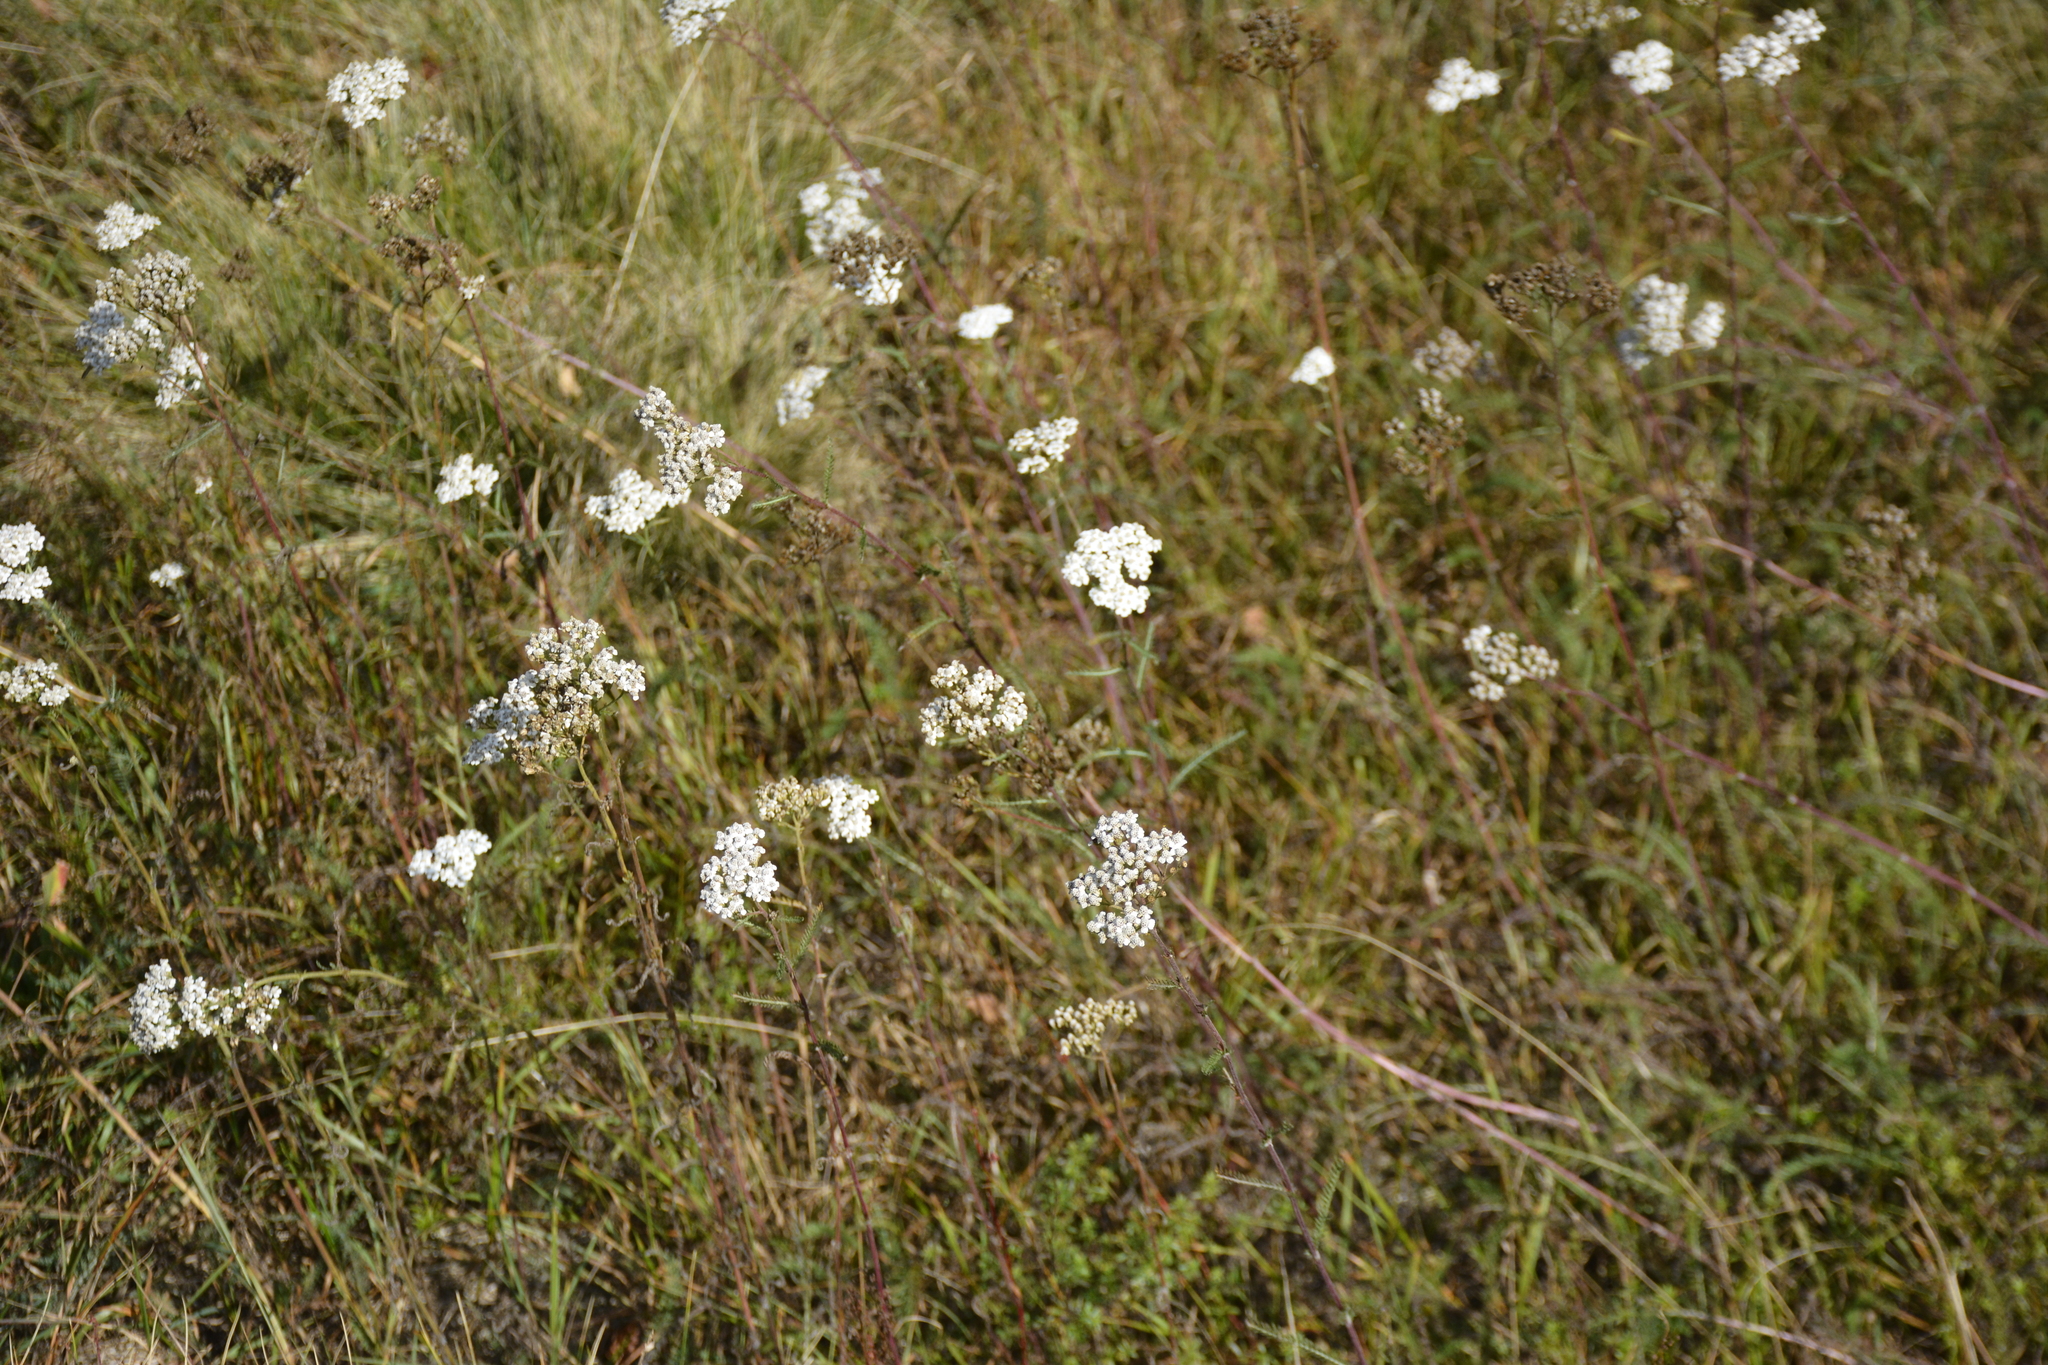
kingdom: Plantae
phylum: Tracheophyta
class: Magnoliopsida
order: Asterales
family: Asteraceae
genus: Achillea
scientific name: Achillea millefolium
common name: Yarrow
